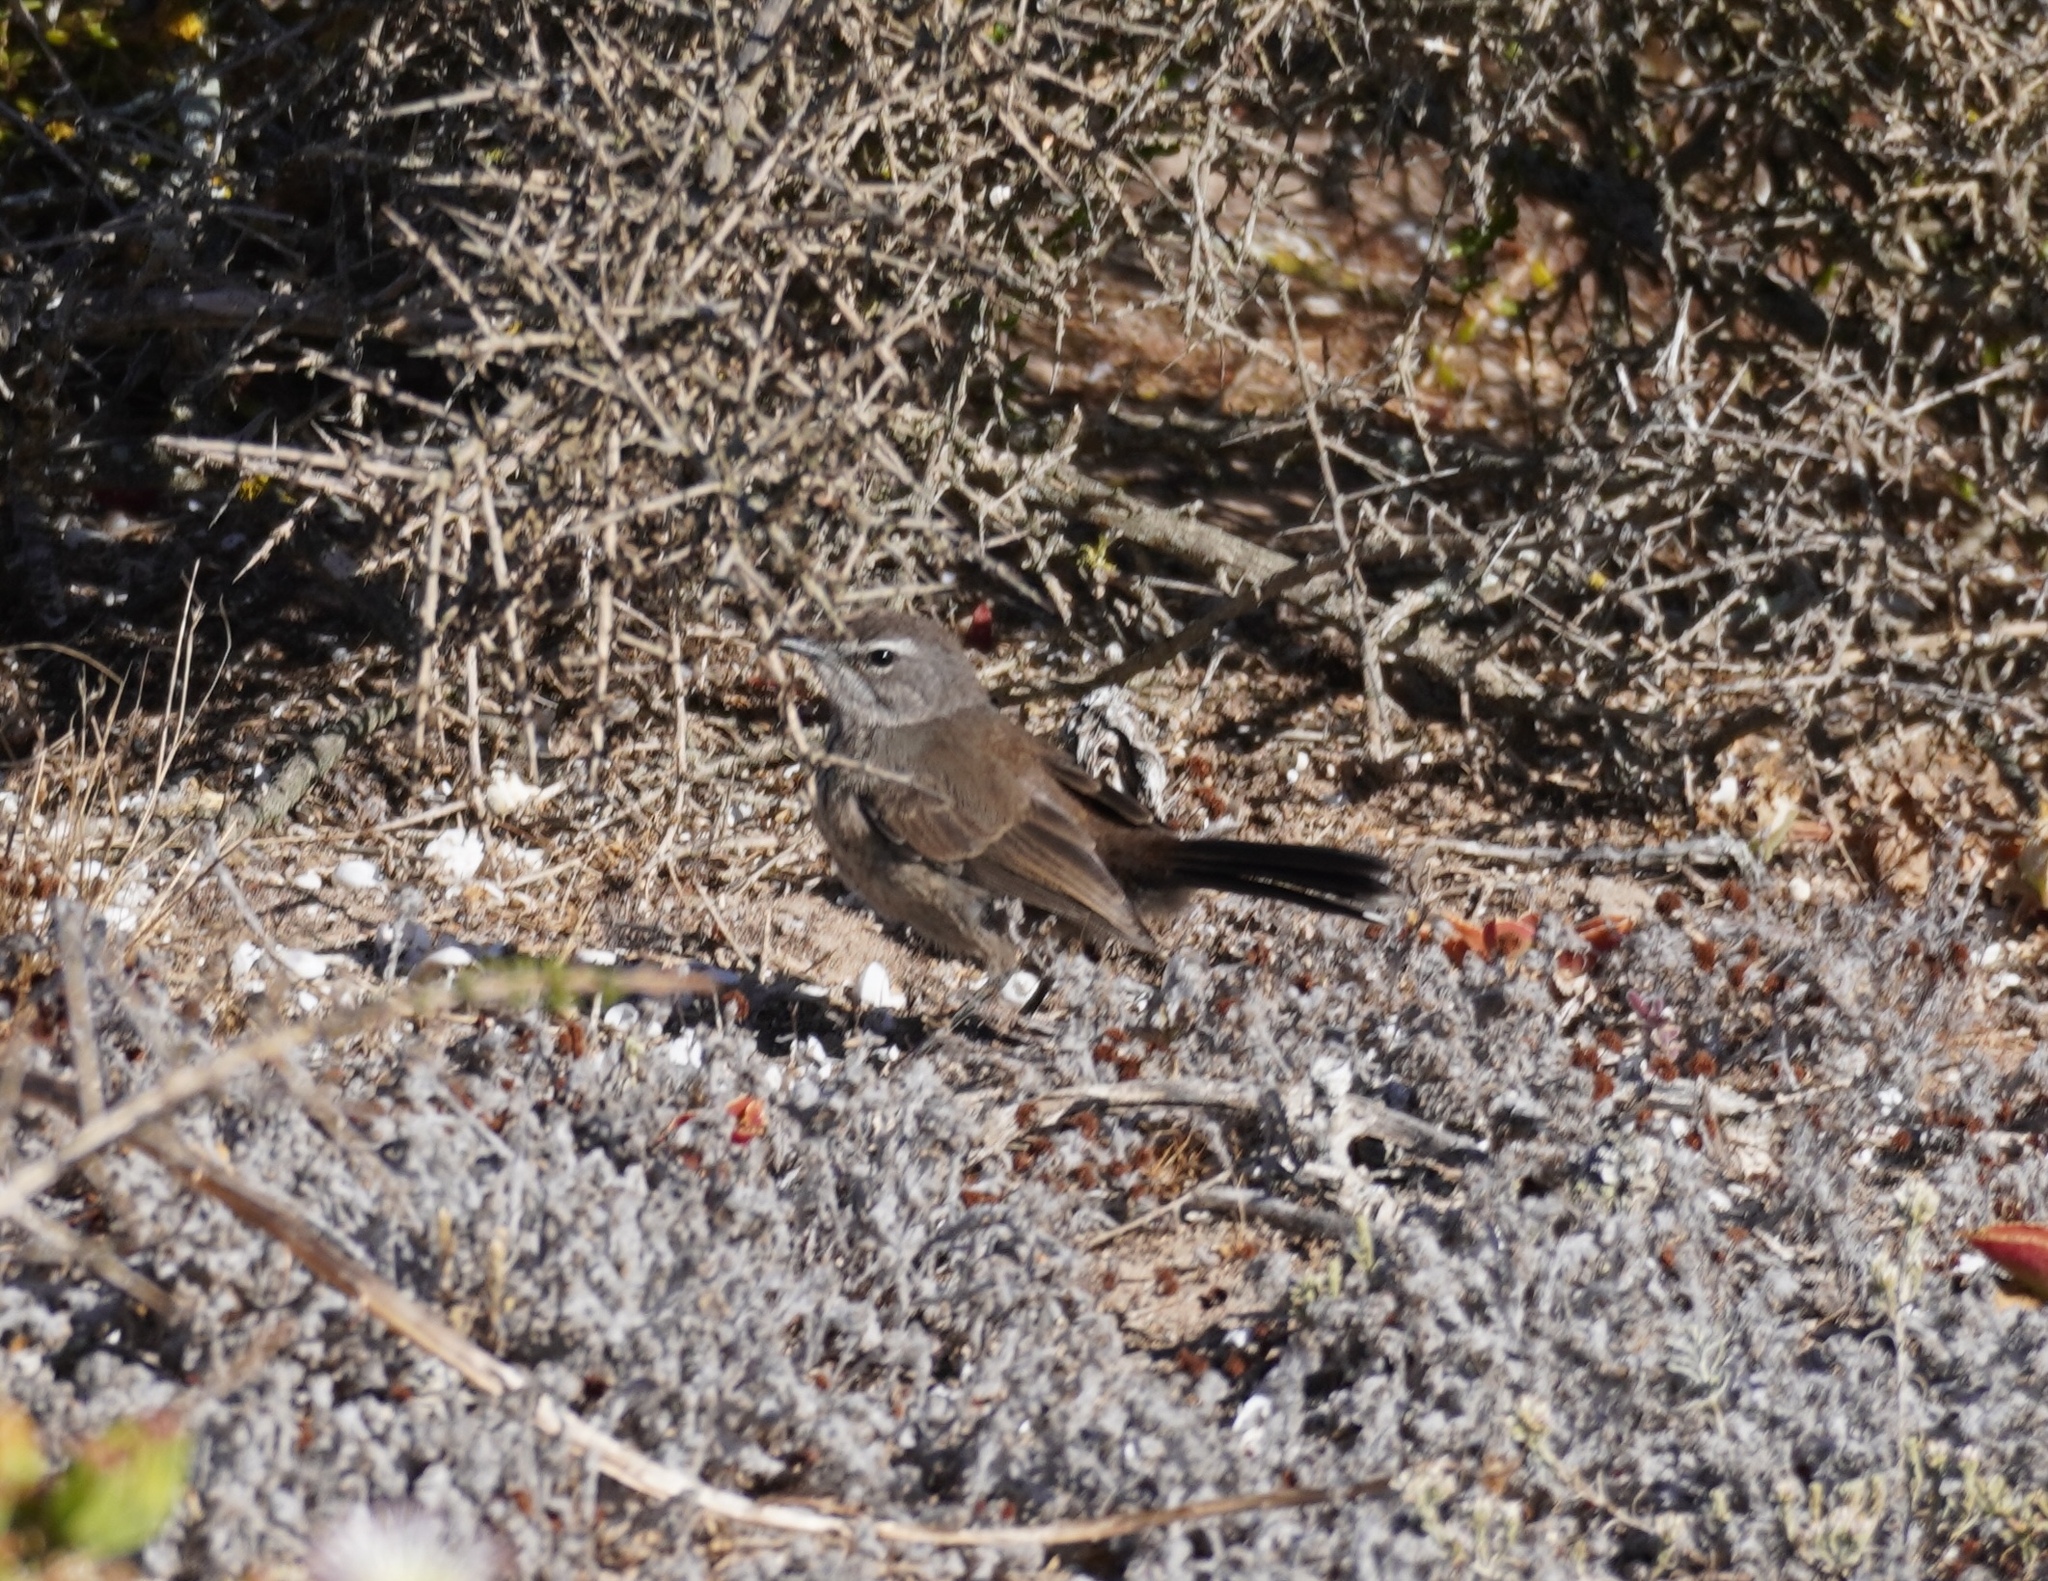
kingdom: Animalia
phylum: Chordata
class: Aves
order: Passeriformes
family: Muscicapidae
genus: Erythropygia
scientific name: Erythropygia coryphoeus
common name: Karoo scrub robin
